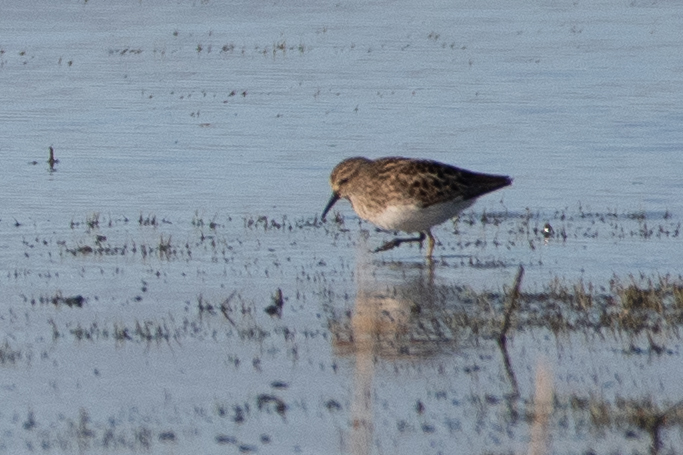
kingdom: Animalia
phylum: Chordata
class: Aves
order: Charadriiformes
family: Scolopacidae
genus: Calidris
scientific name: Calidris minutilla
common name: Least sandpiper
